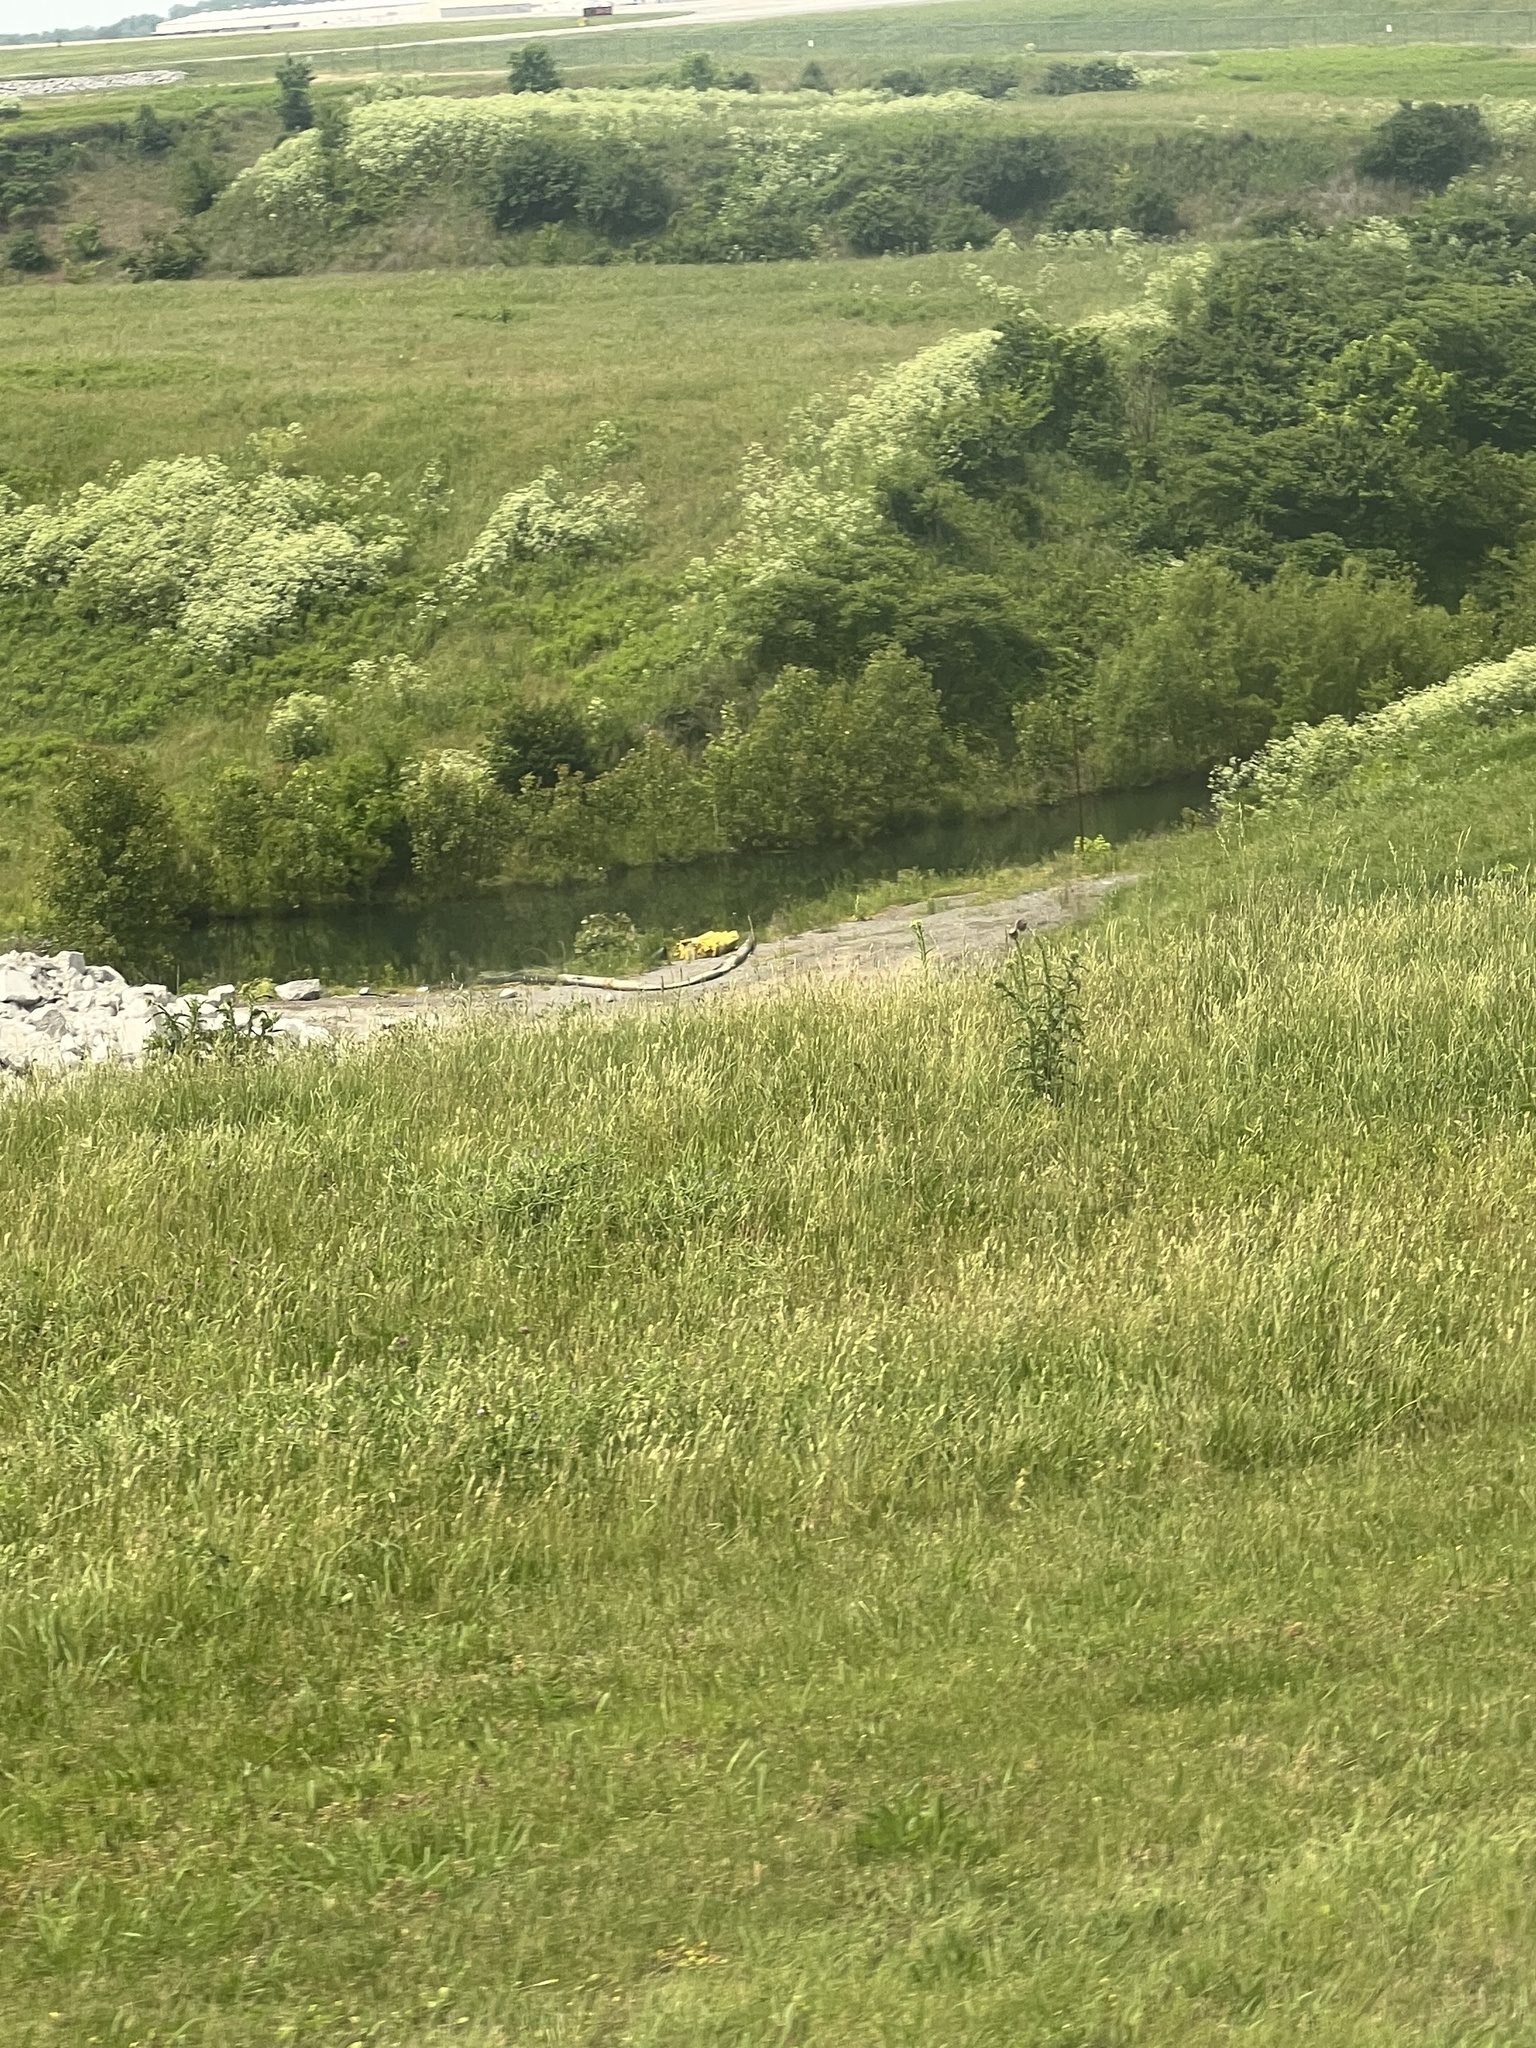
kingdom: Plantae
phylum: Tracheophyta
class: Magnoliopsida
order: Asterales
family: Asteraceae
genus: Cirsium
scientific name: Cirsium vulgare
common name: Bull thistle
